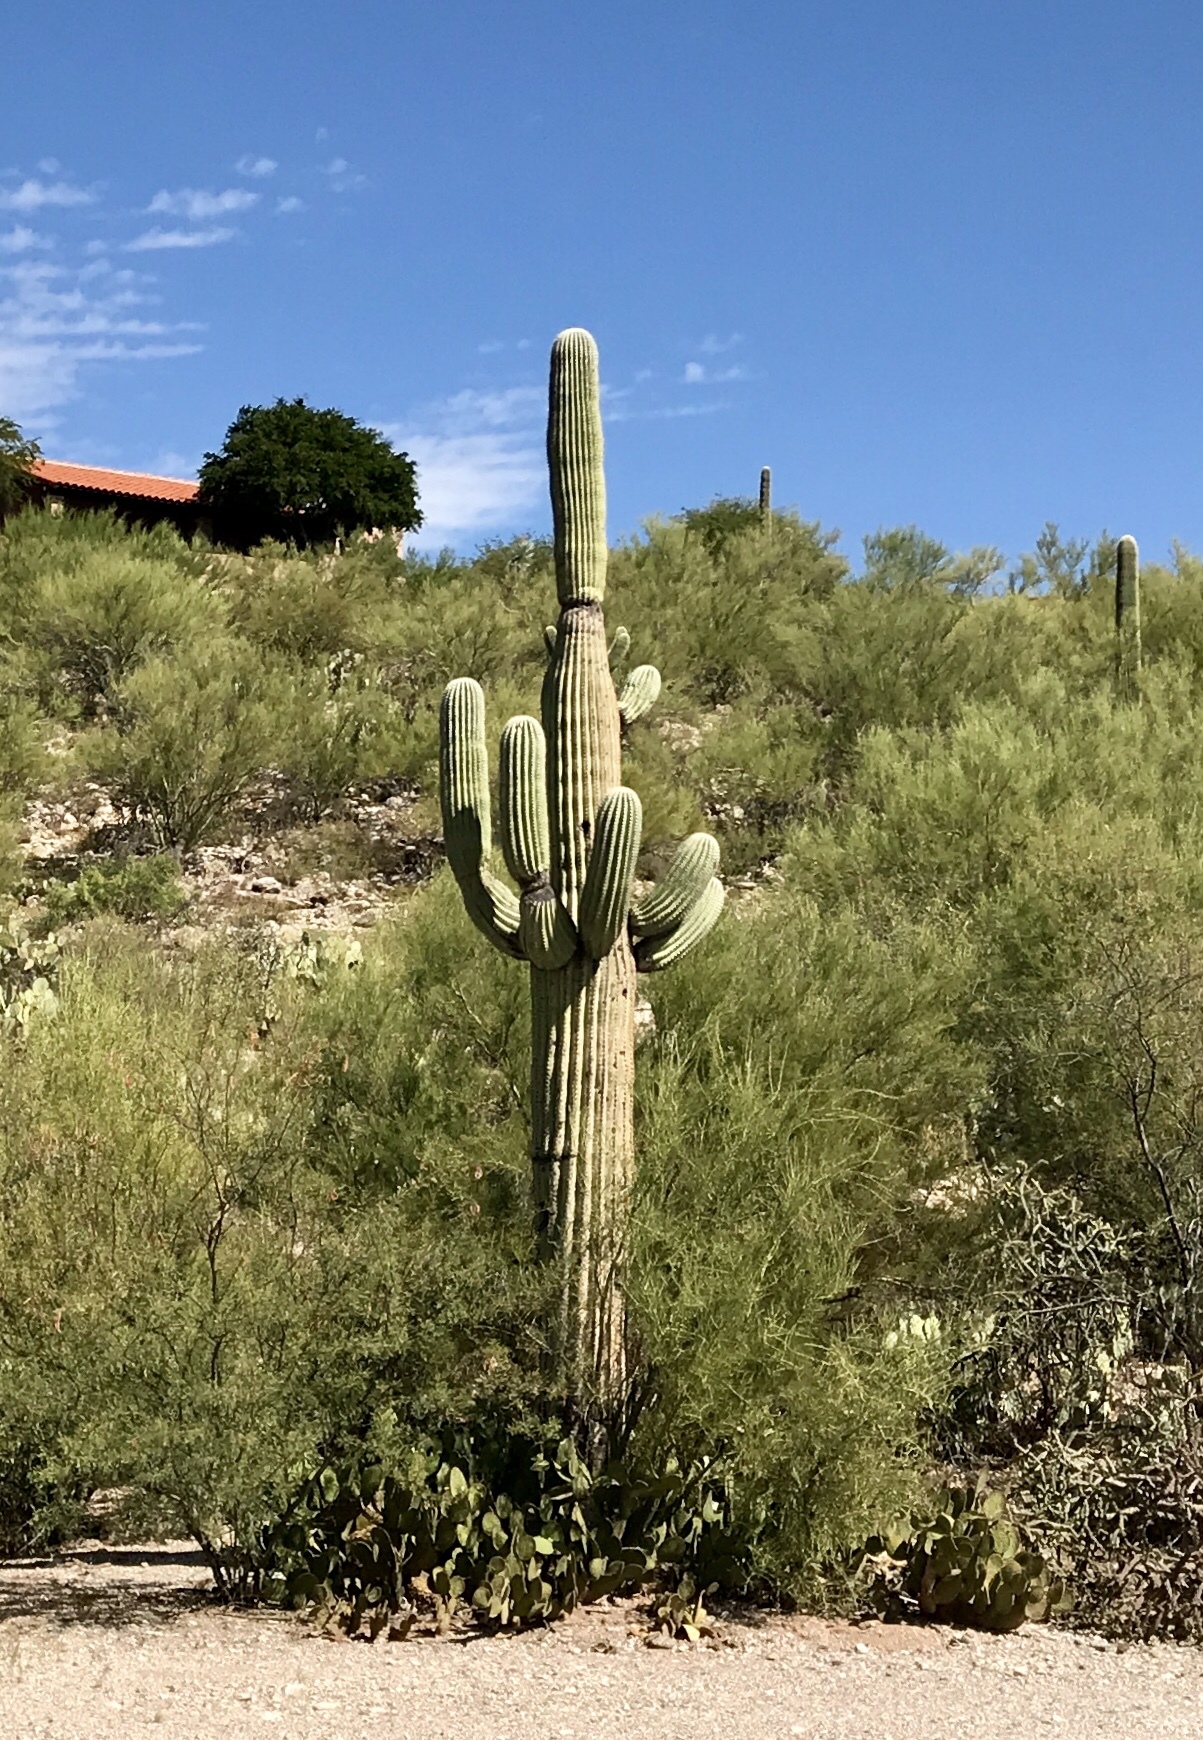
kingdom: Plantae
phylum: Tracheophyta
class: Magnoliopsida
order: Caryophyllales
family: Cactaceae
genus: Carnegiea
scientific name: Carnegiea gigantea
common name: Saguaro
